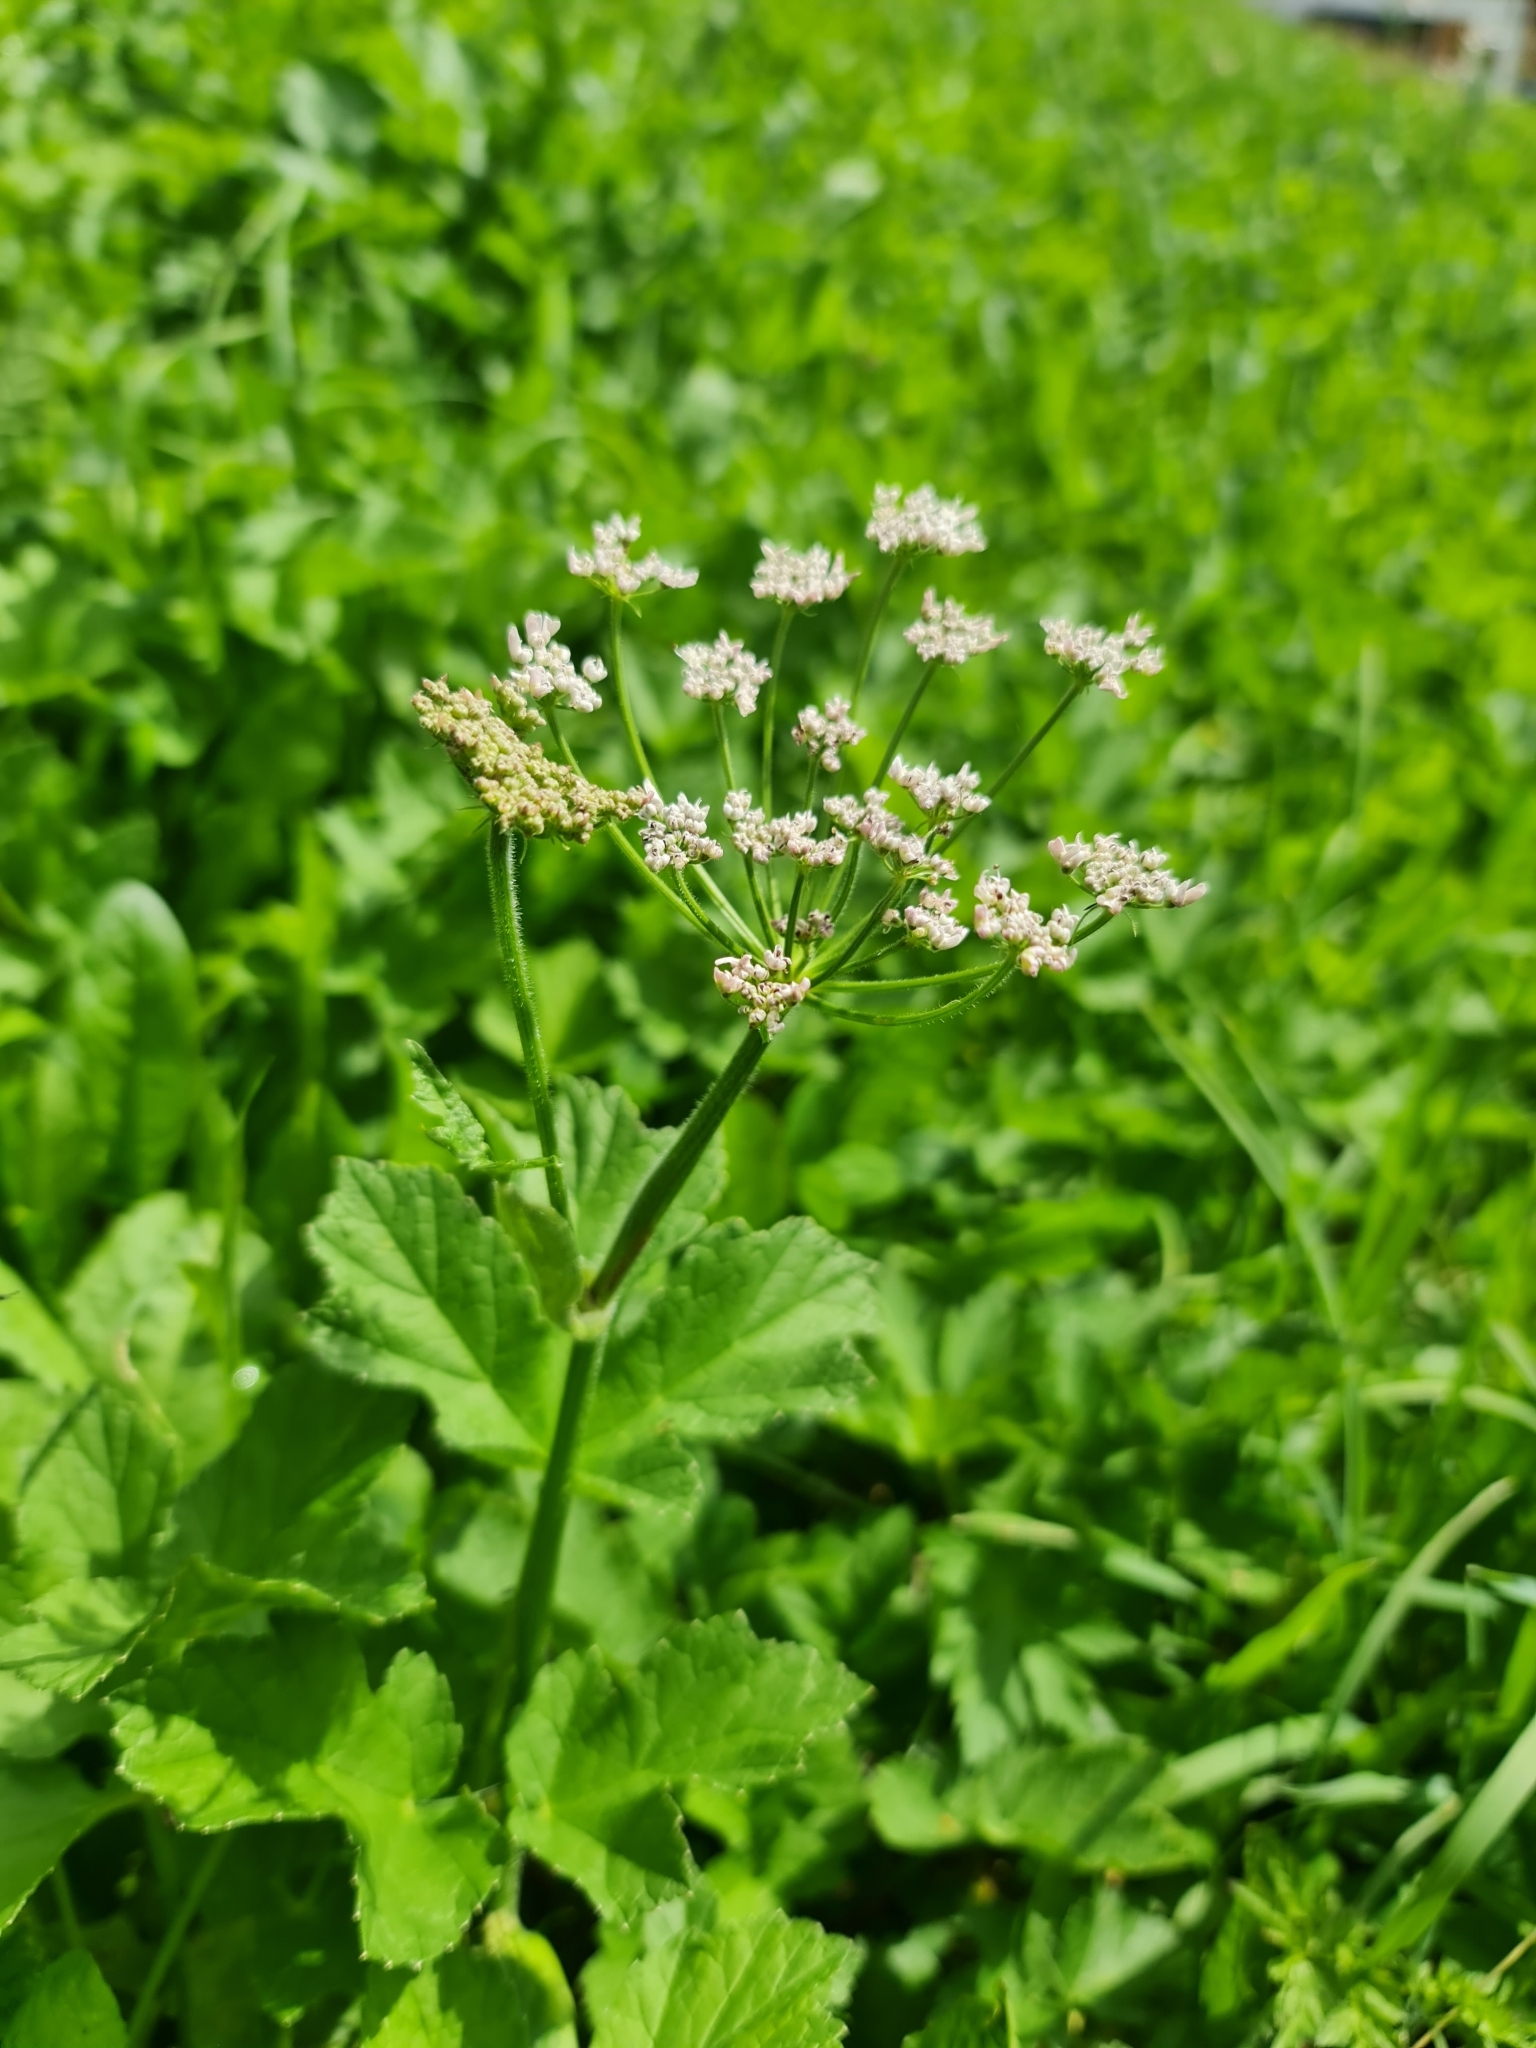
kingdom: Plantae
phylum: Tracheophyta
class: Magnoliopsida
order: Apiales
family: Apiaceae
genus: Chaerophyllum
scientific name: Chaerophyllum hirsutum
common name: Hairy chervil
